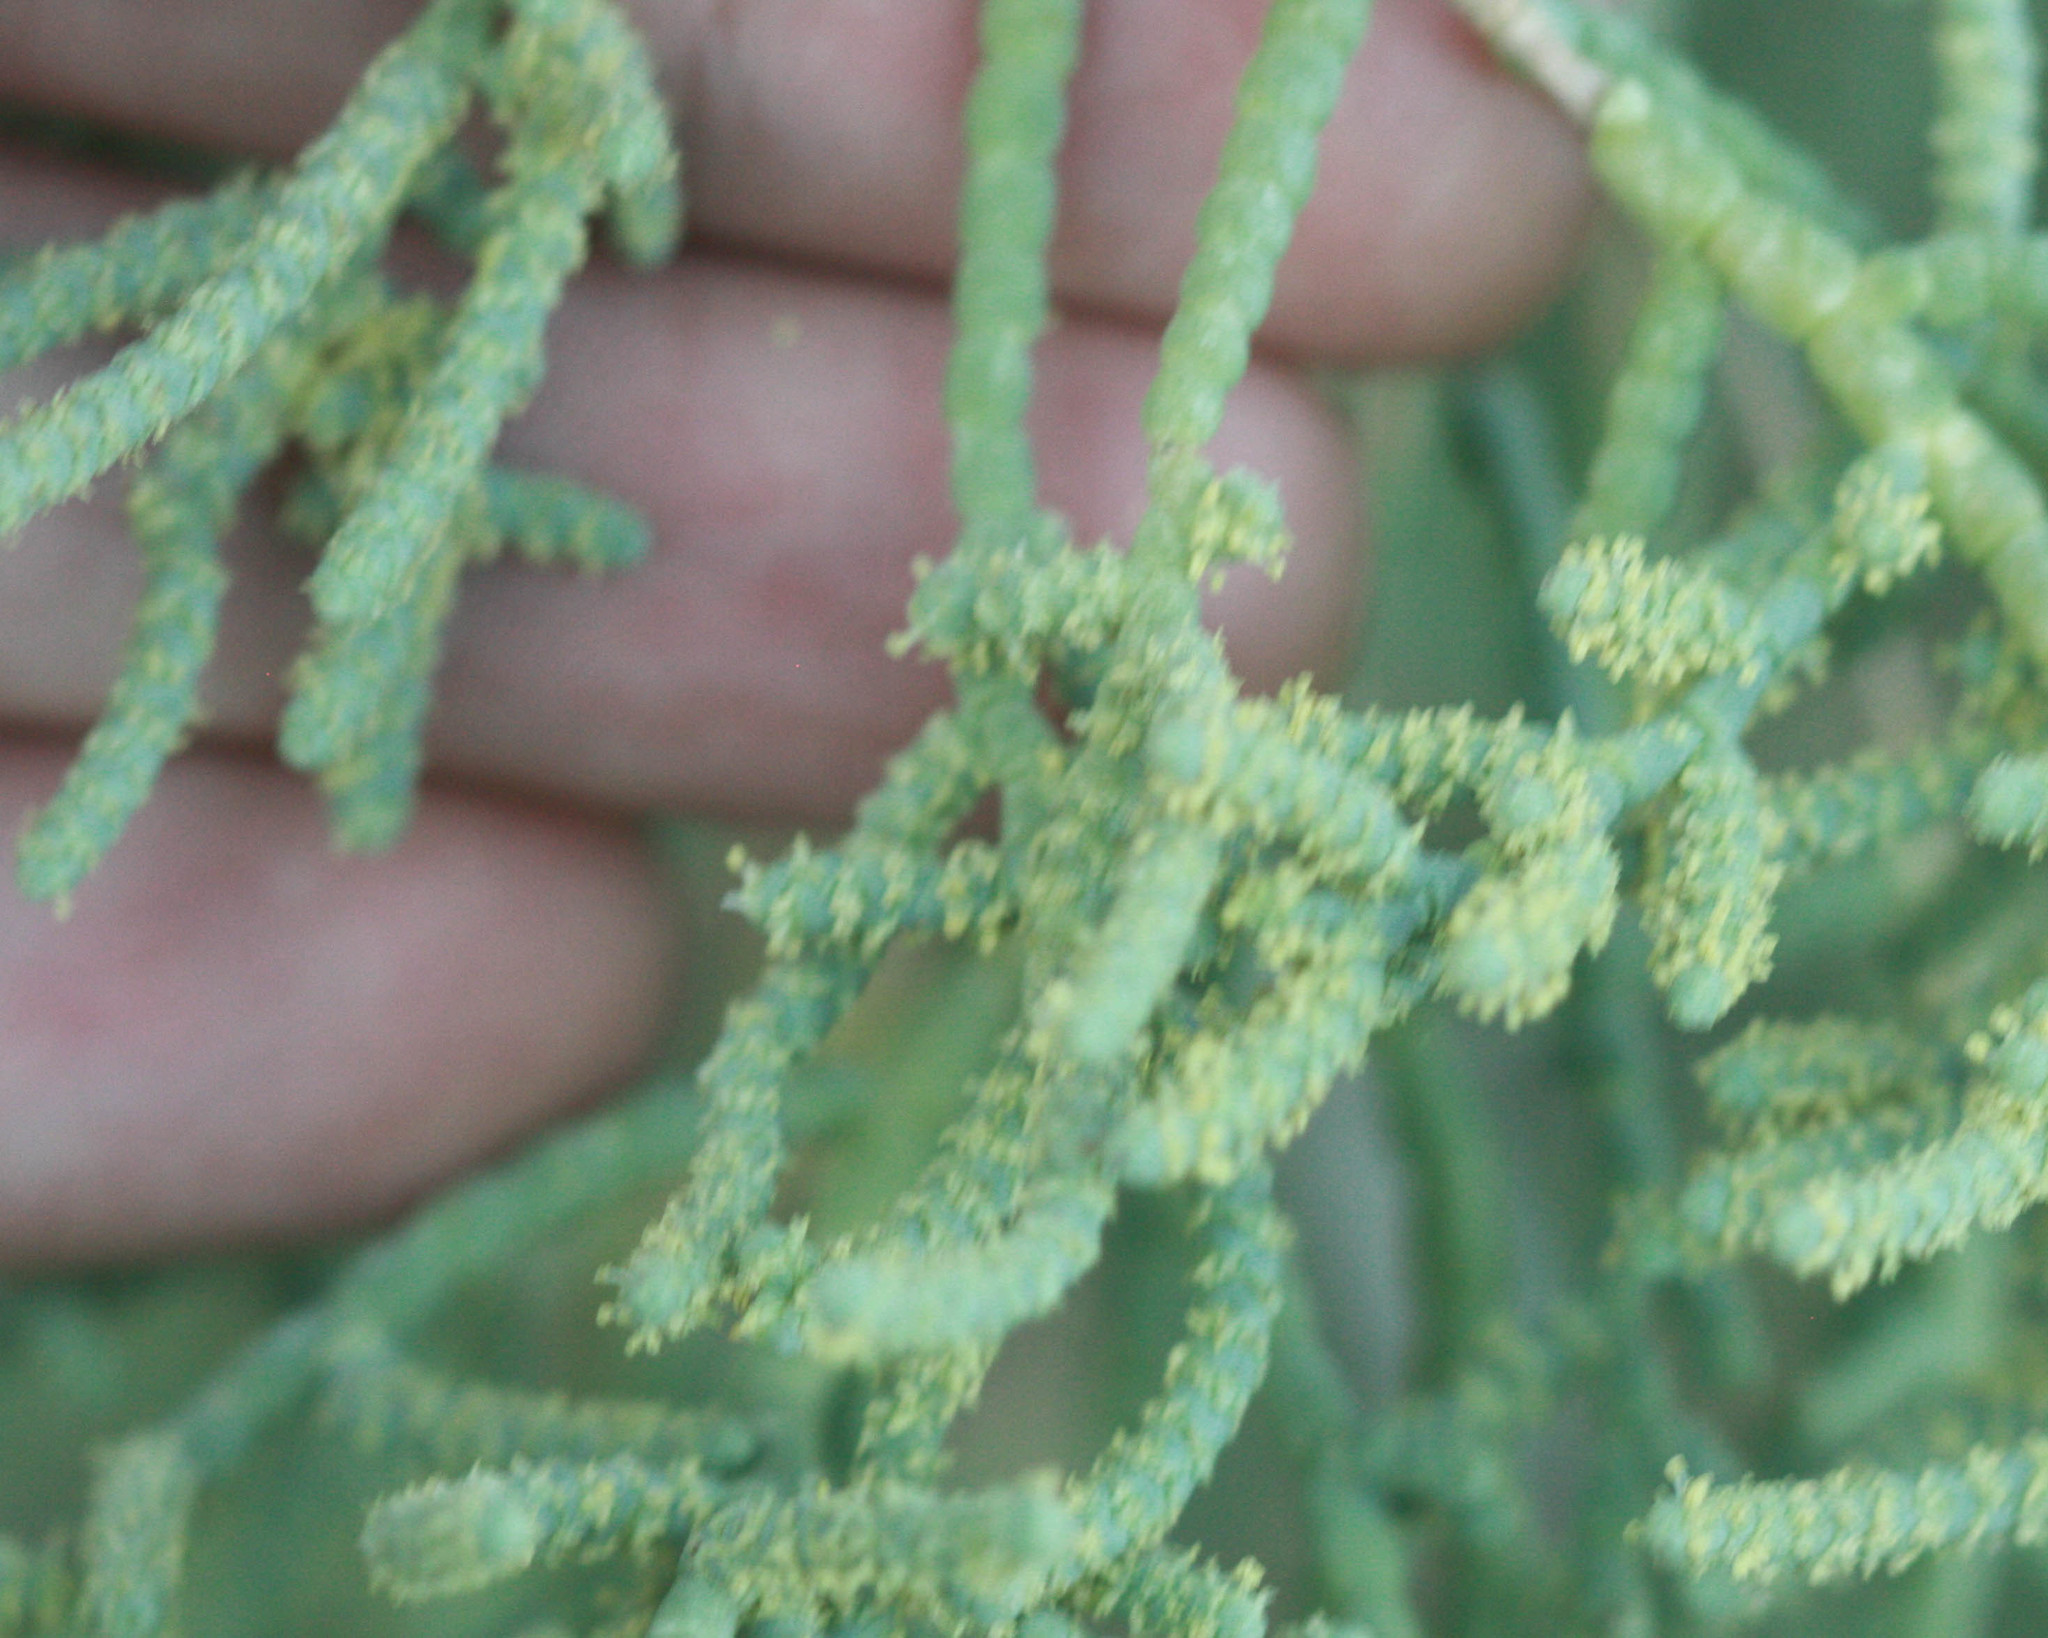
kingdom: Plantae
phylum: Tracheophyta
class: Magnoliopsida
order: Caryophyllales
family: Amaranthaceae
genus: Allenrolfea
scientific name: Allenrolfea occidentalis
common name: Iodine-bush
